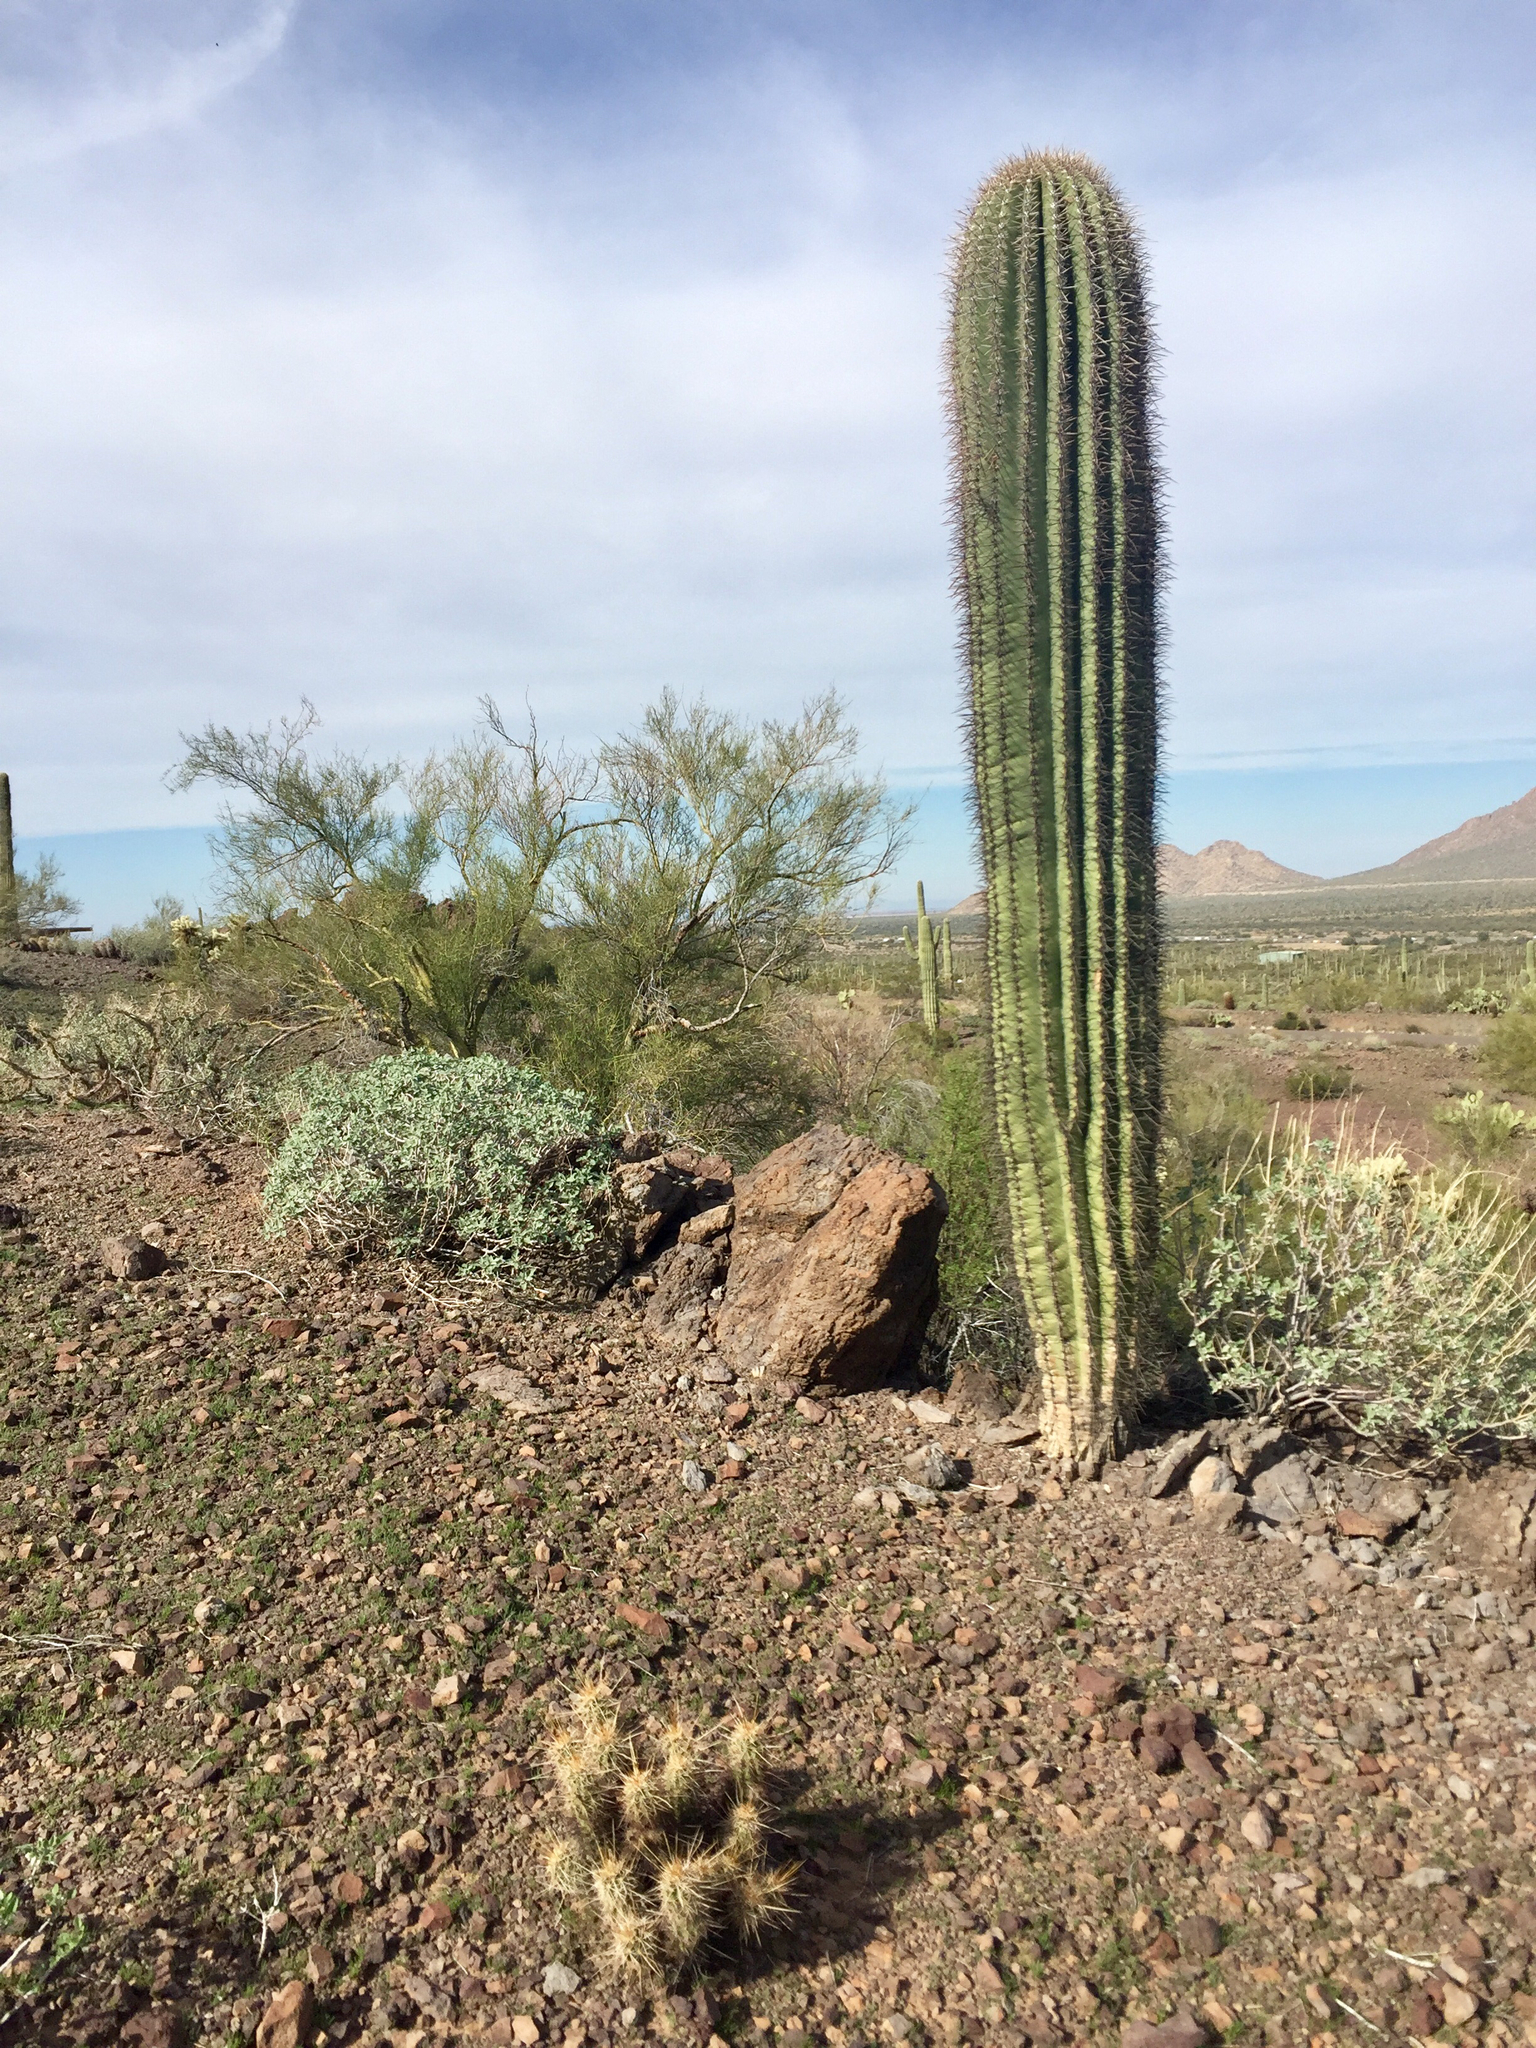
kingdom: Plantae
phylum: Tracheophyta
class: Magnoliopsida
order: Caryophyllales
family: Cactaceae
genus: Carnegiea
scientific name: Carnegiea gigantea
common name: Saguaro
